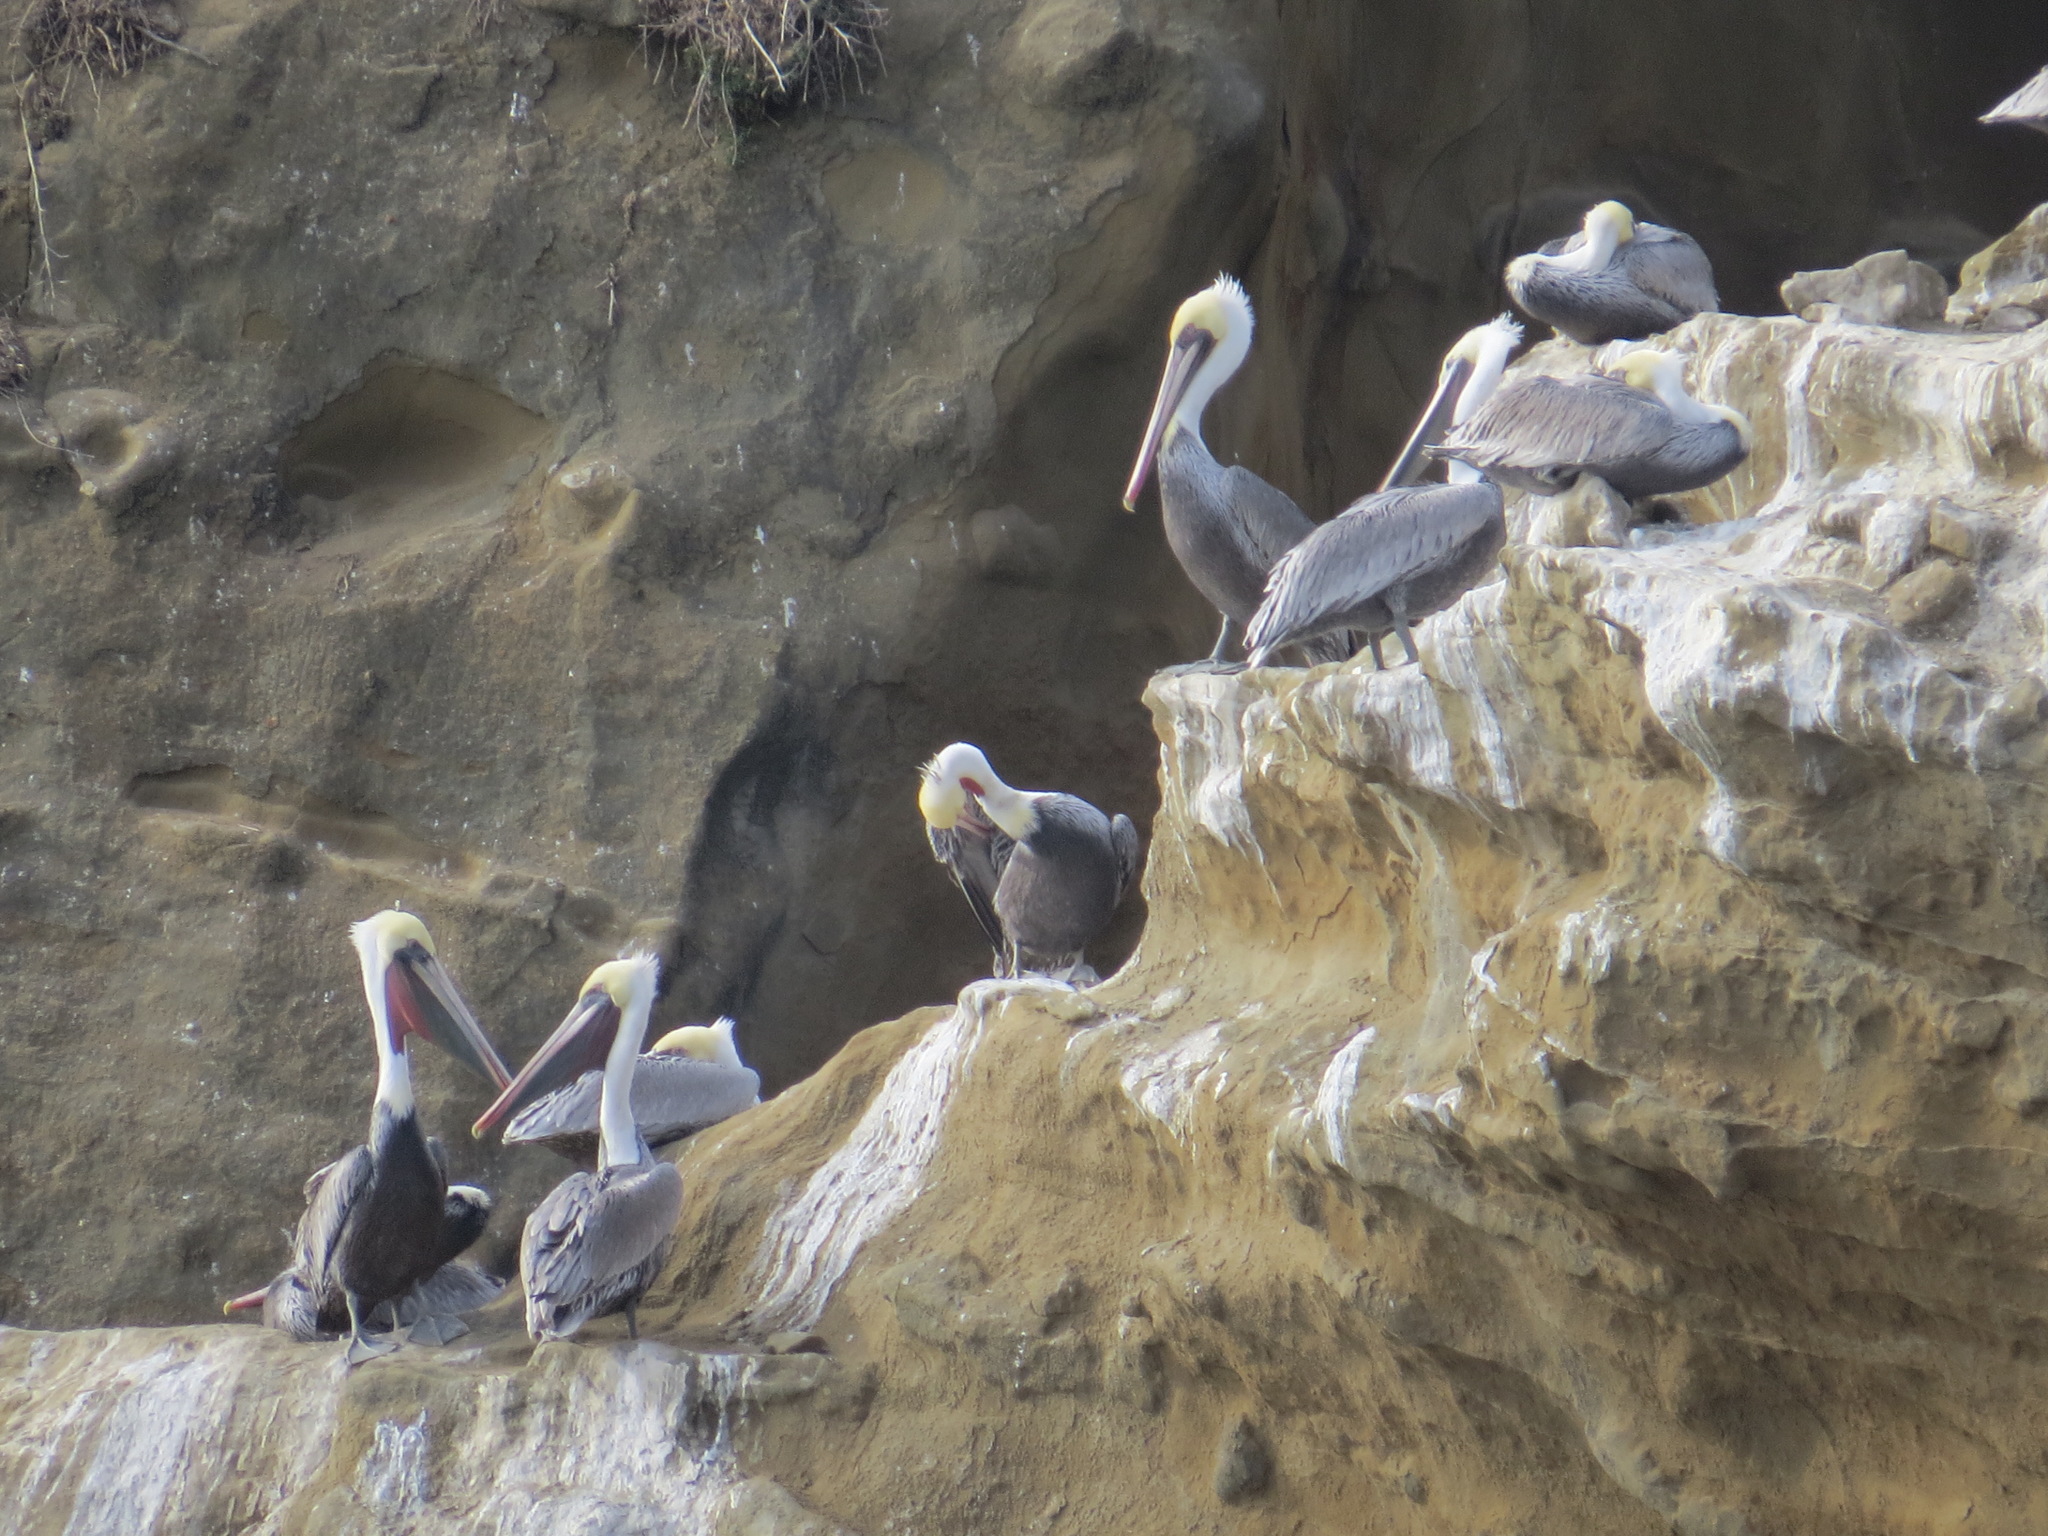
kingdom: Animalia
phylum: Chordata
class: Aves
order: Pelecaniformes
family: Pelecanidae
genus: Pelecanus
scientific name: Pelecanus occidentalis
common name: Brown pelican
